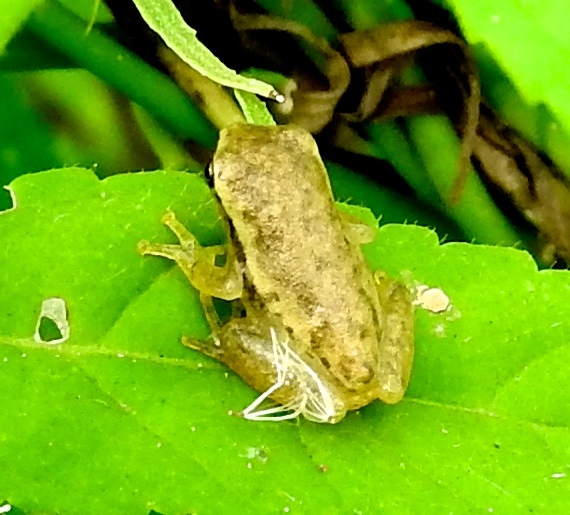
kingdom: Animalia
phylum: Chordata
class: Amphibia
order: Anura
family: Hylidae
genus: Tlalocohyla
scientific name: Tlalocohyla smithii
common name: Dwarf mexican treefrog
